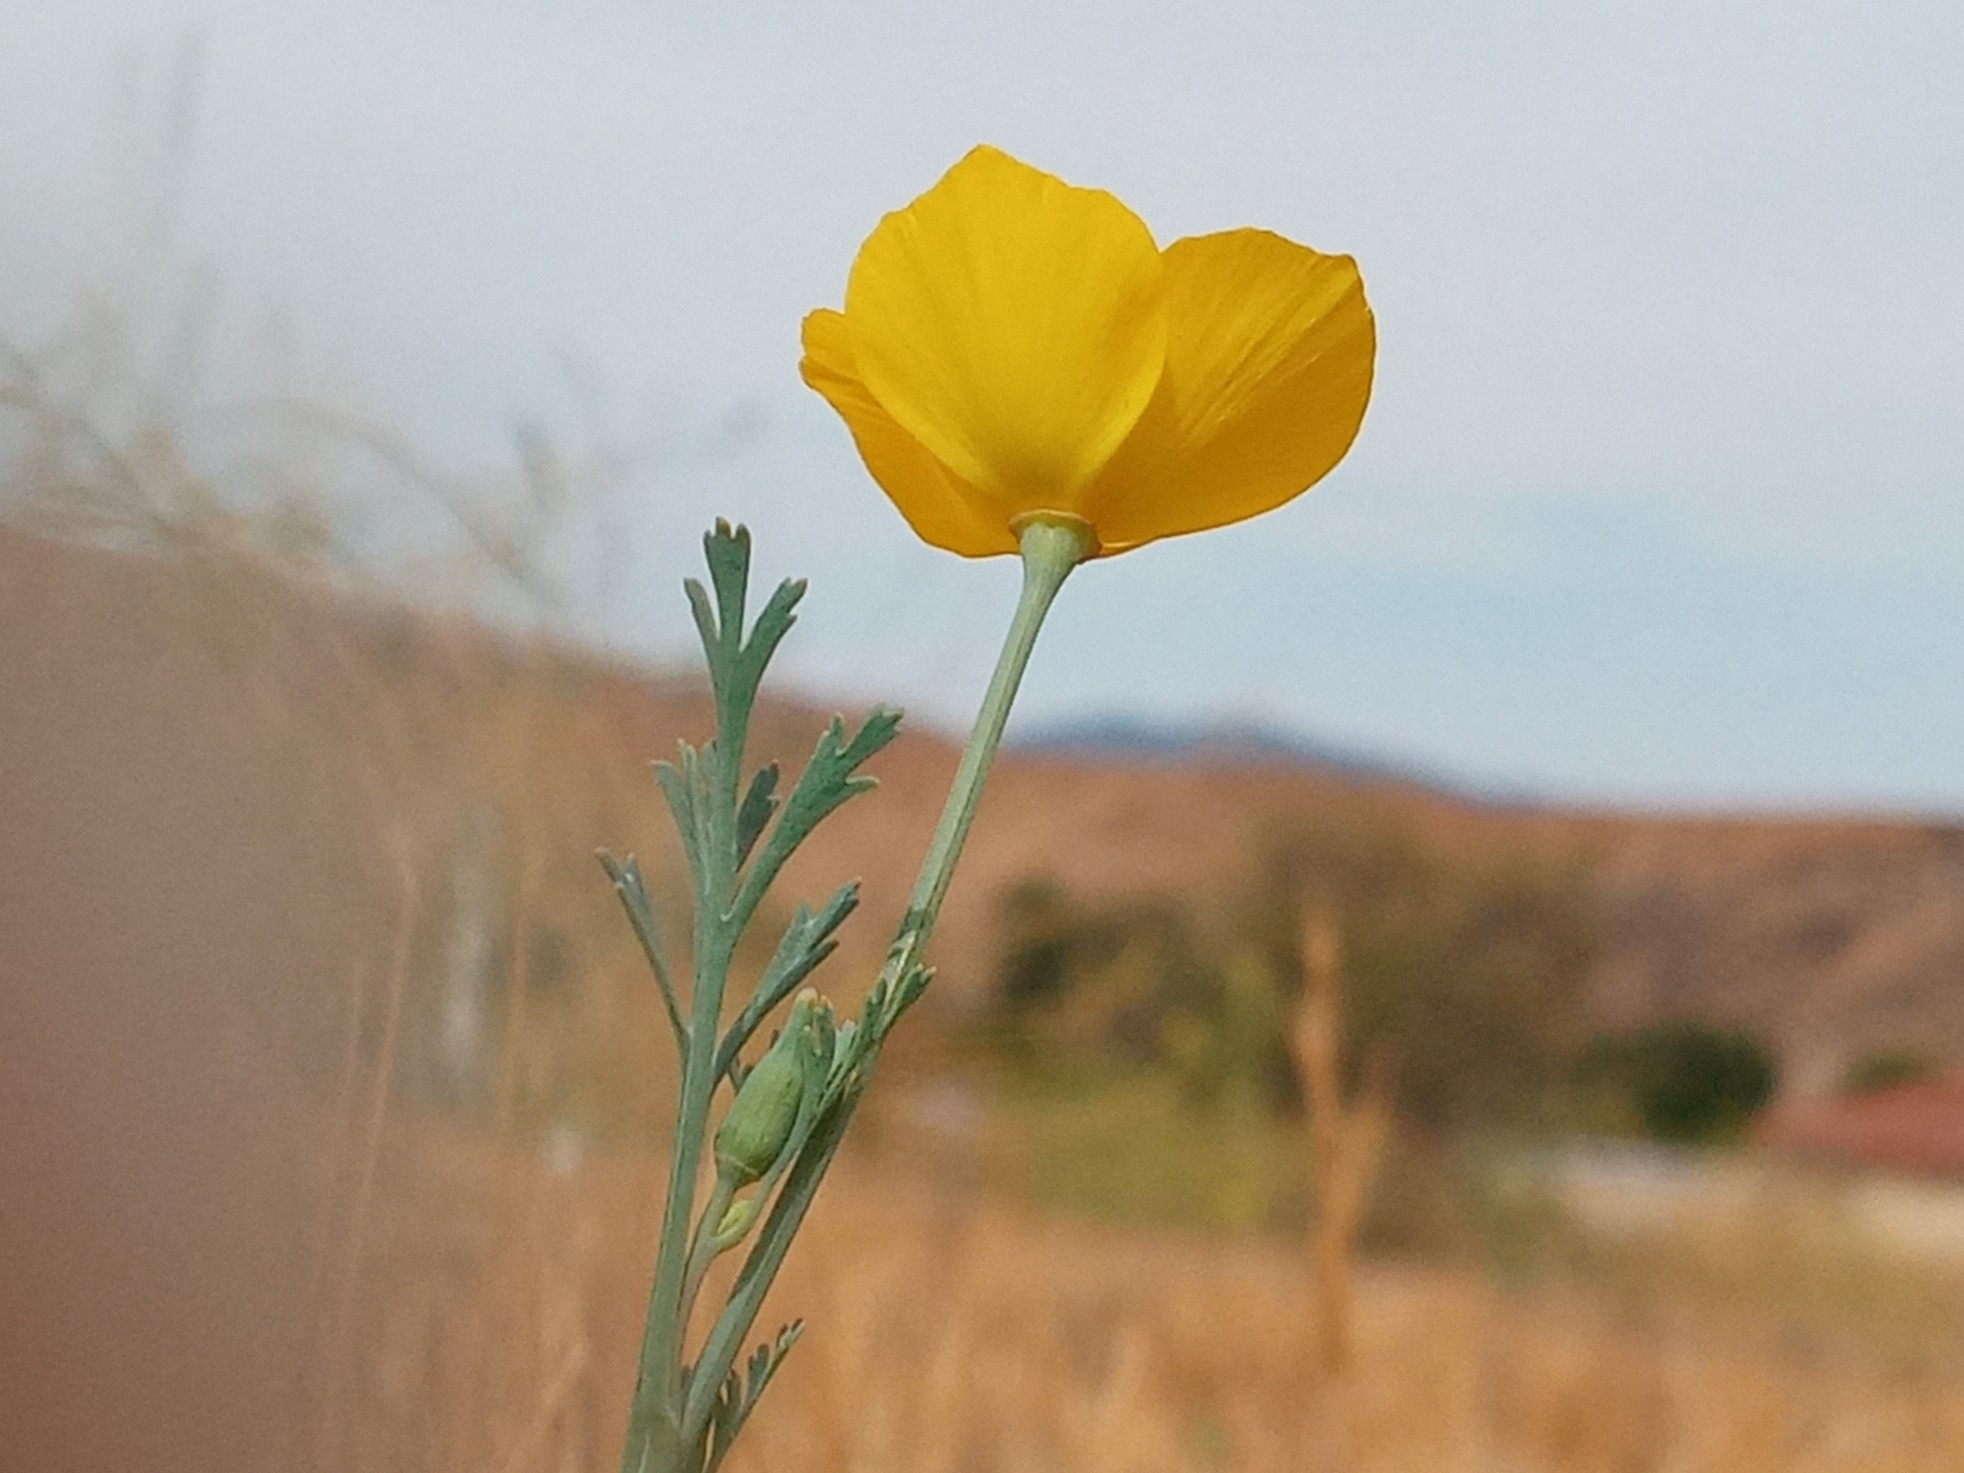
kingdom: Plantae
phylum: Tracheophyta
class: Magnoliopsida
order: Ranunculales
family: Papaveraceae
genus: Eschscholzia
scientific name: Eschscholzia californica
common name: California poppy
